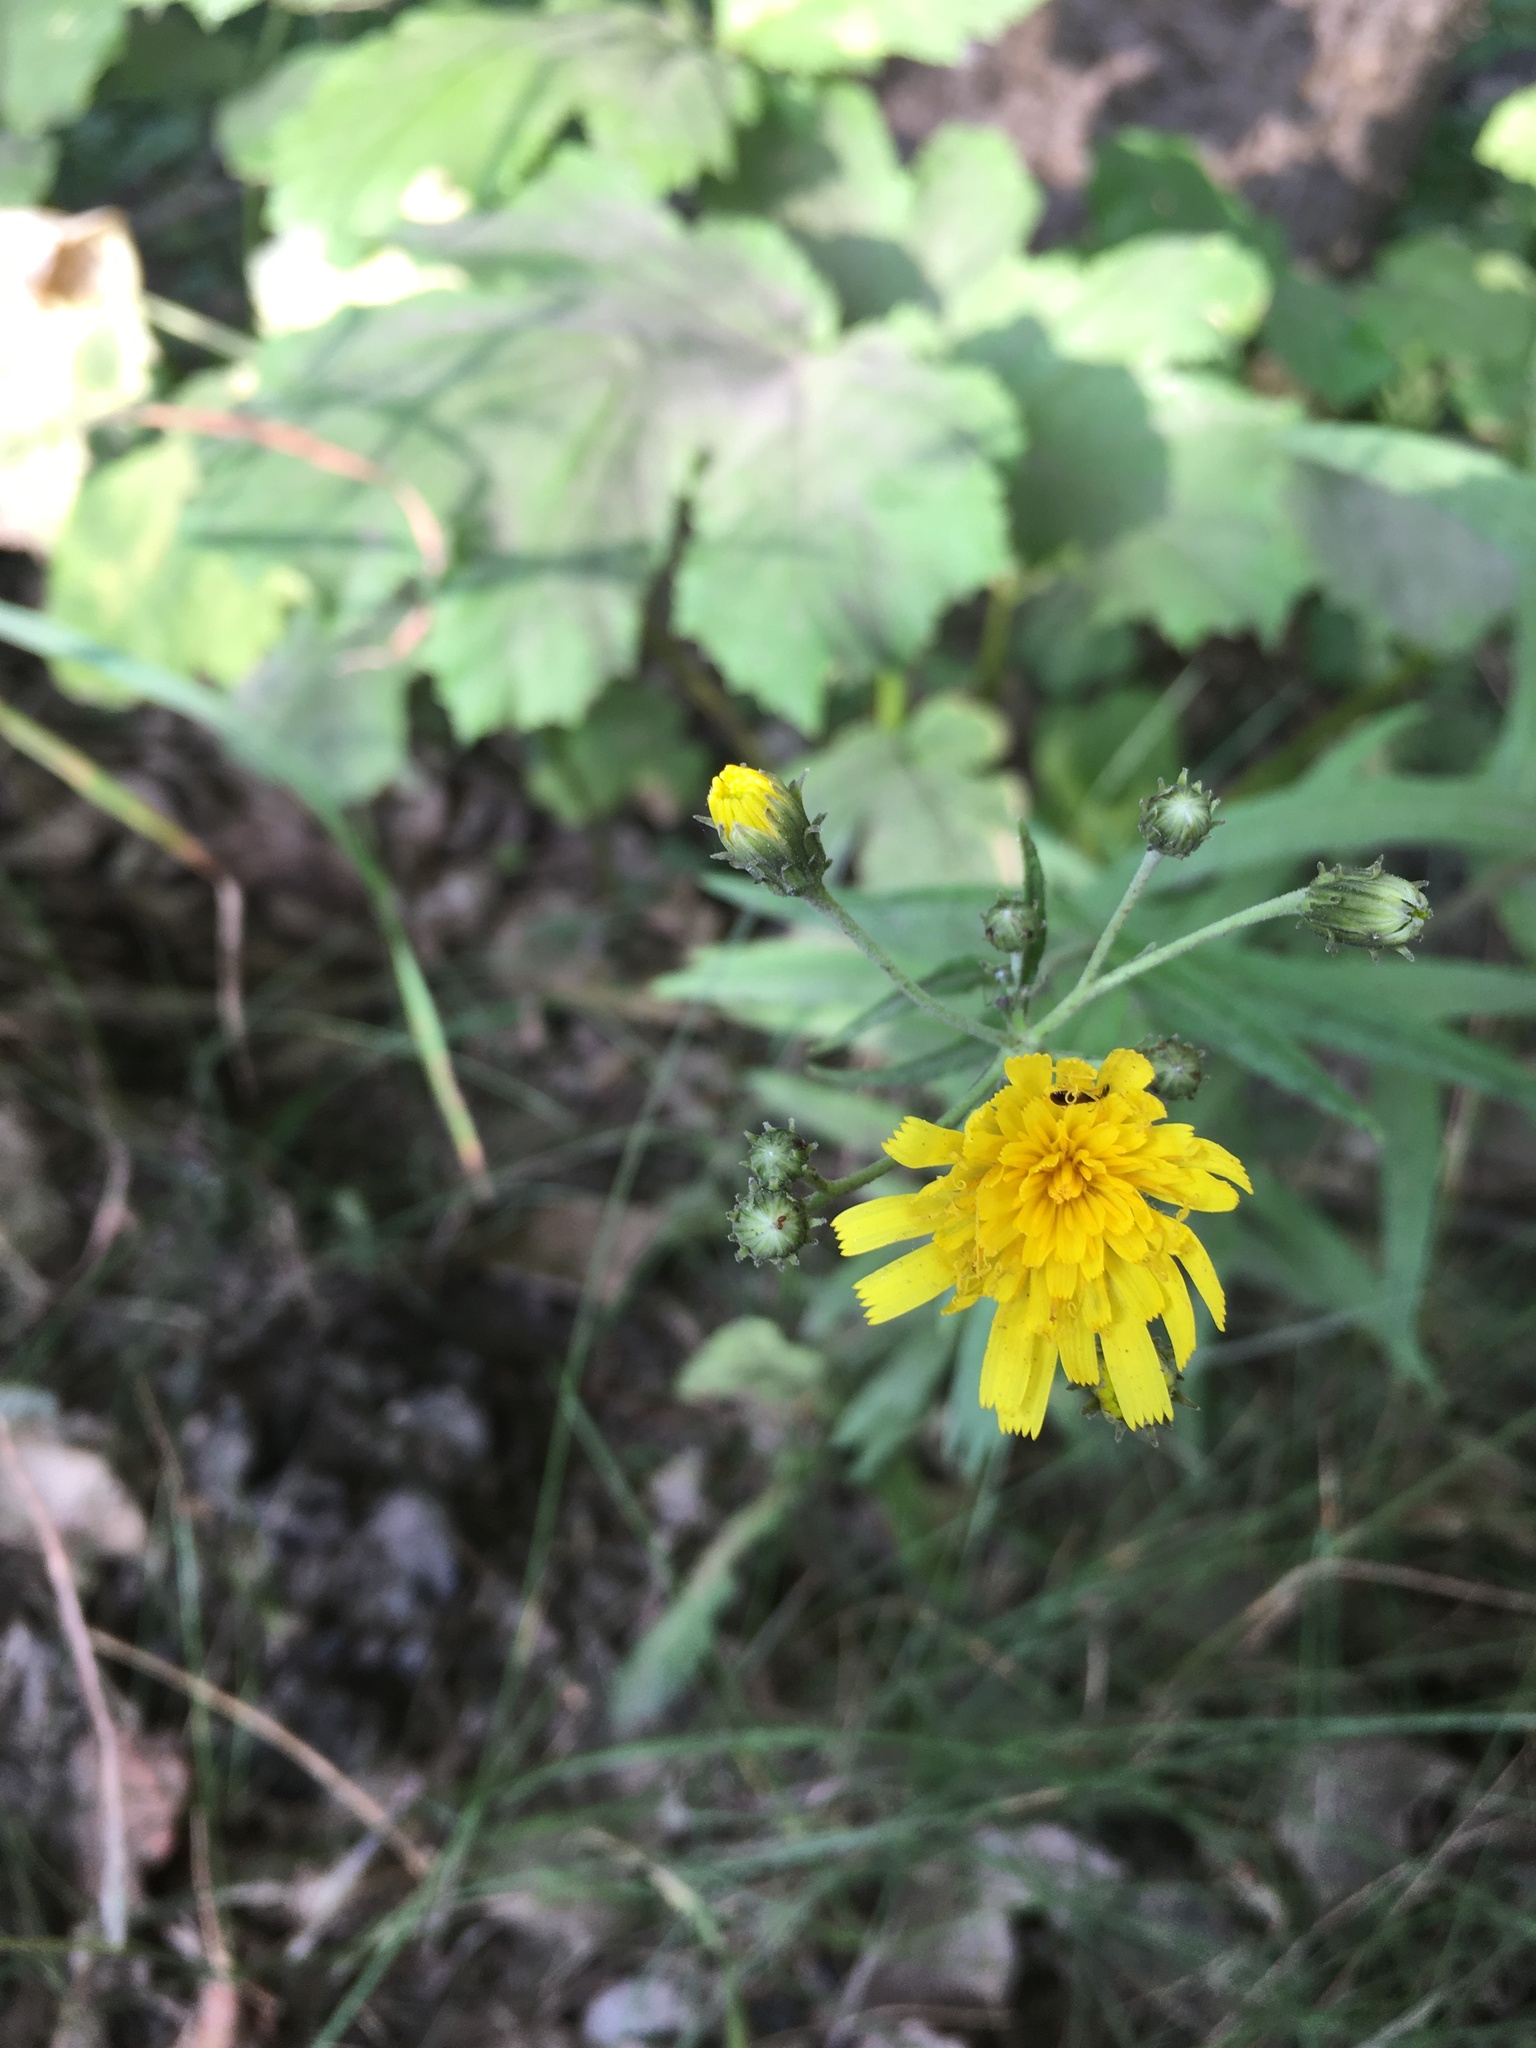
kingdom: Plantae
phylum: Tracheophyta
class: Magnoliopsida
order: Asterales
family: Asteraceae
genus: Hieracium
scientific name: Hieracium umbellatum
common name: Northern hawkweed
